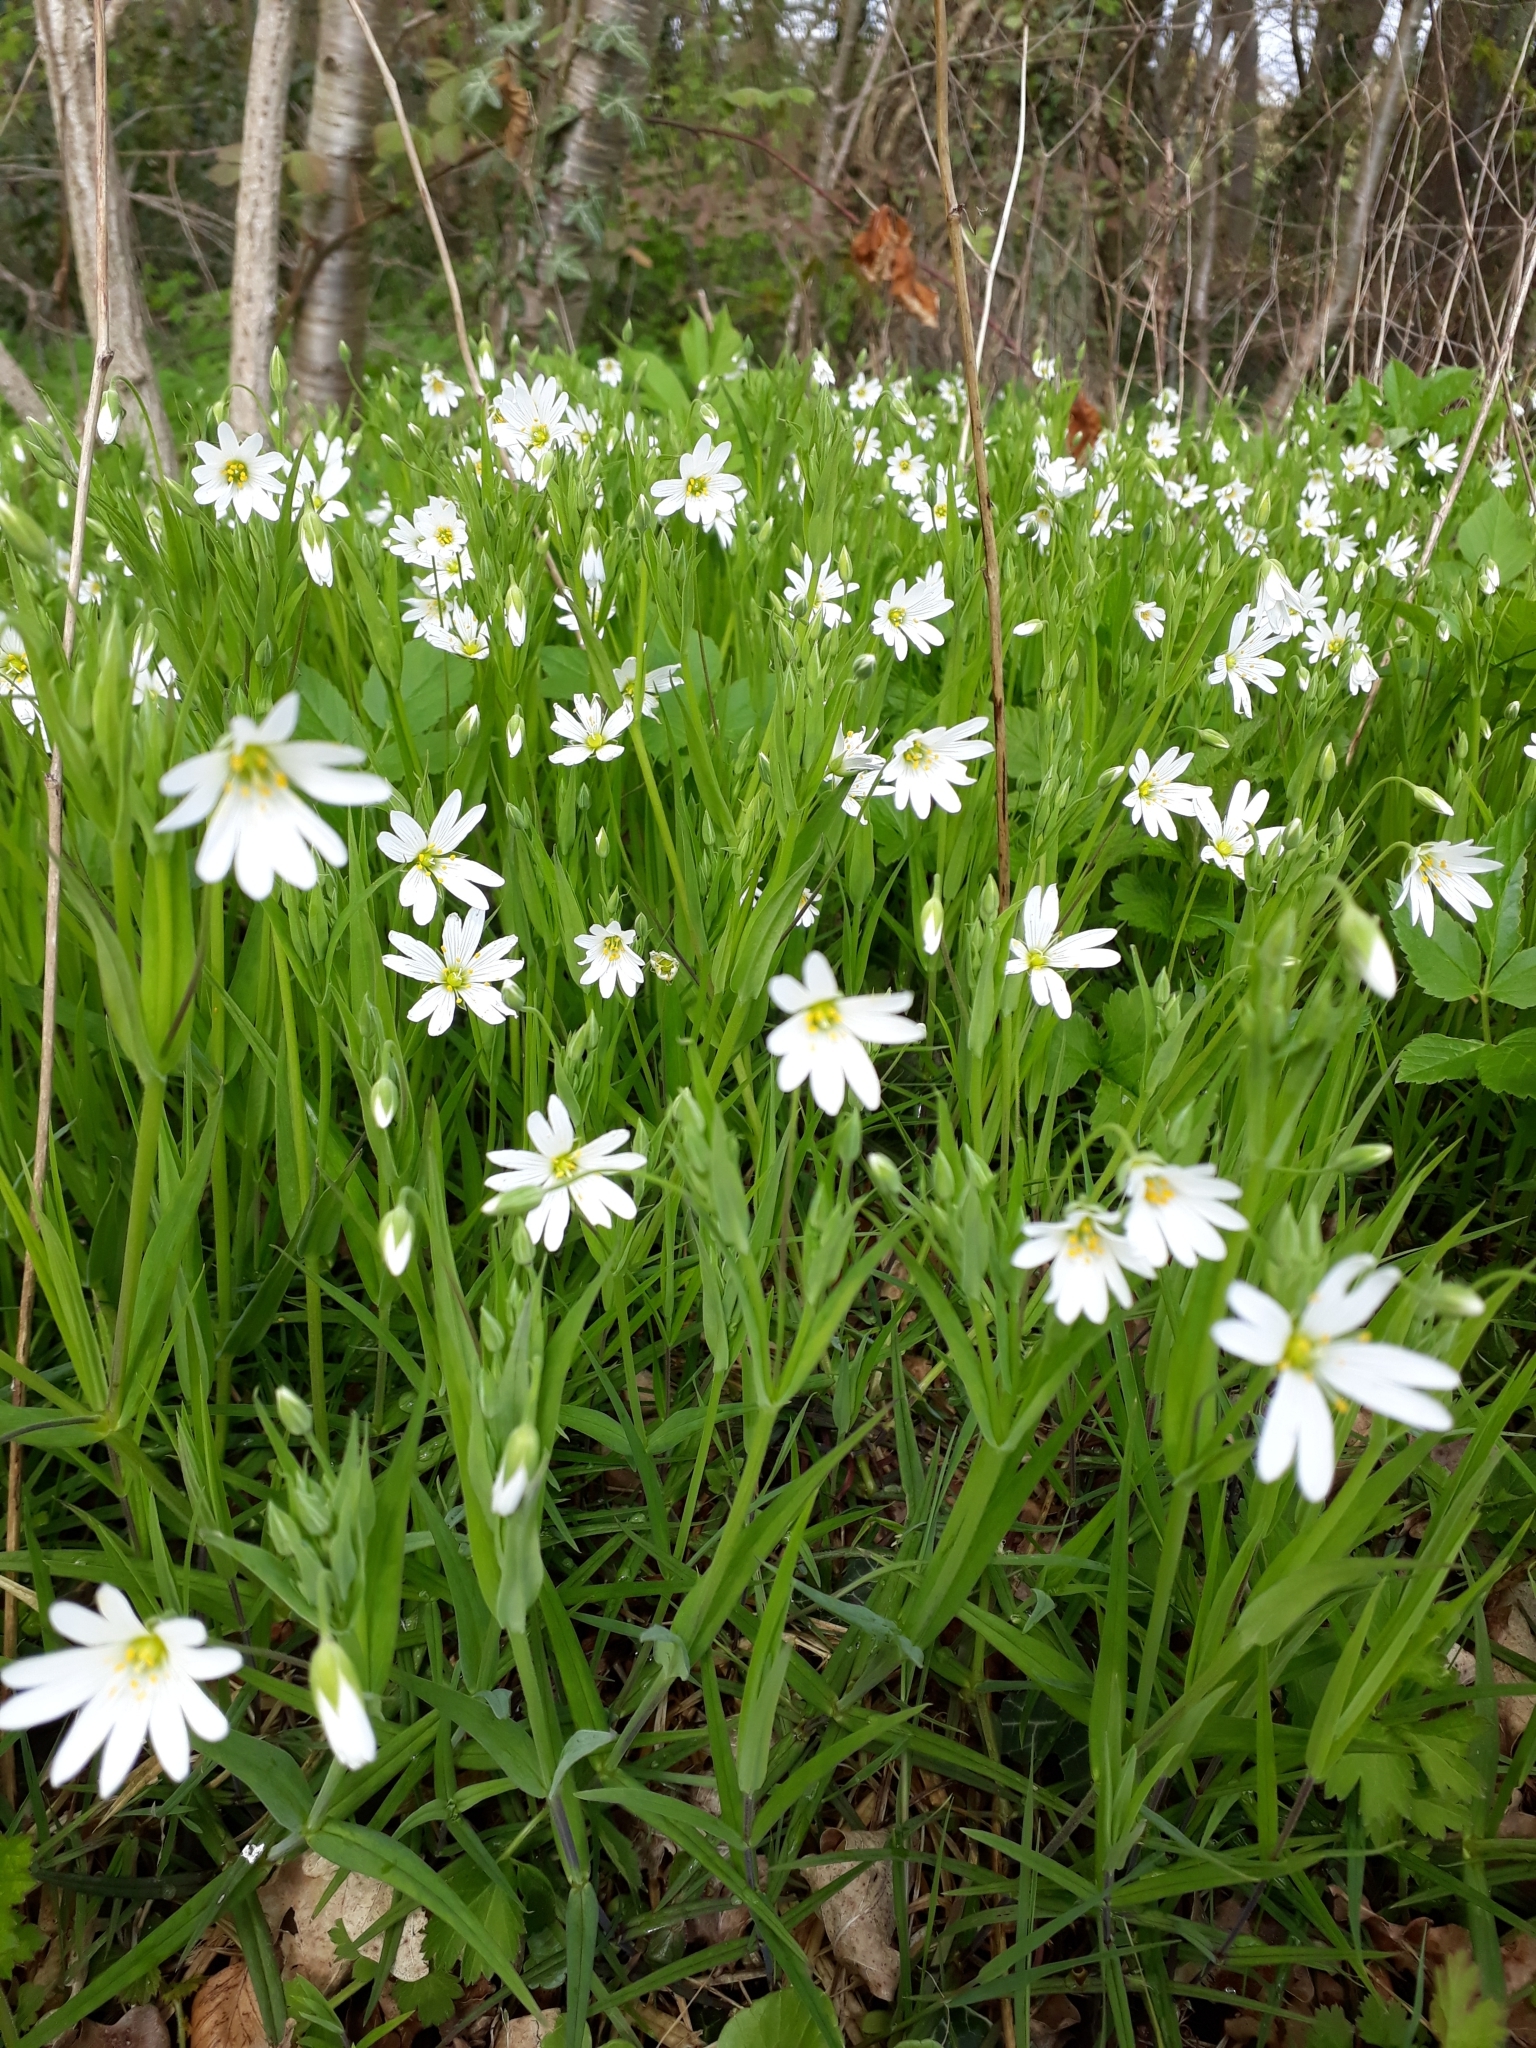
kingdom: Plantae
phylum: Tracheophyta
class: Magnoliopsida
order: Caryophyllales
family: Caryophyllaceae
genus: Rabelera
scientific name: Rabelera holostea
